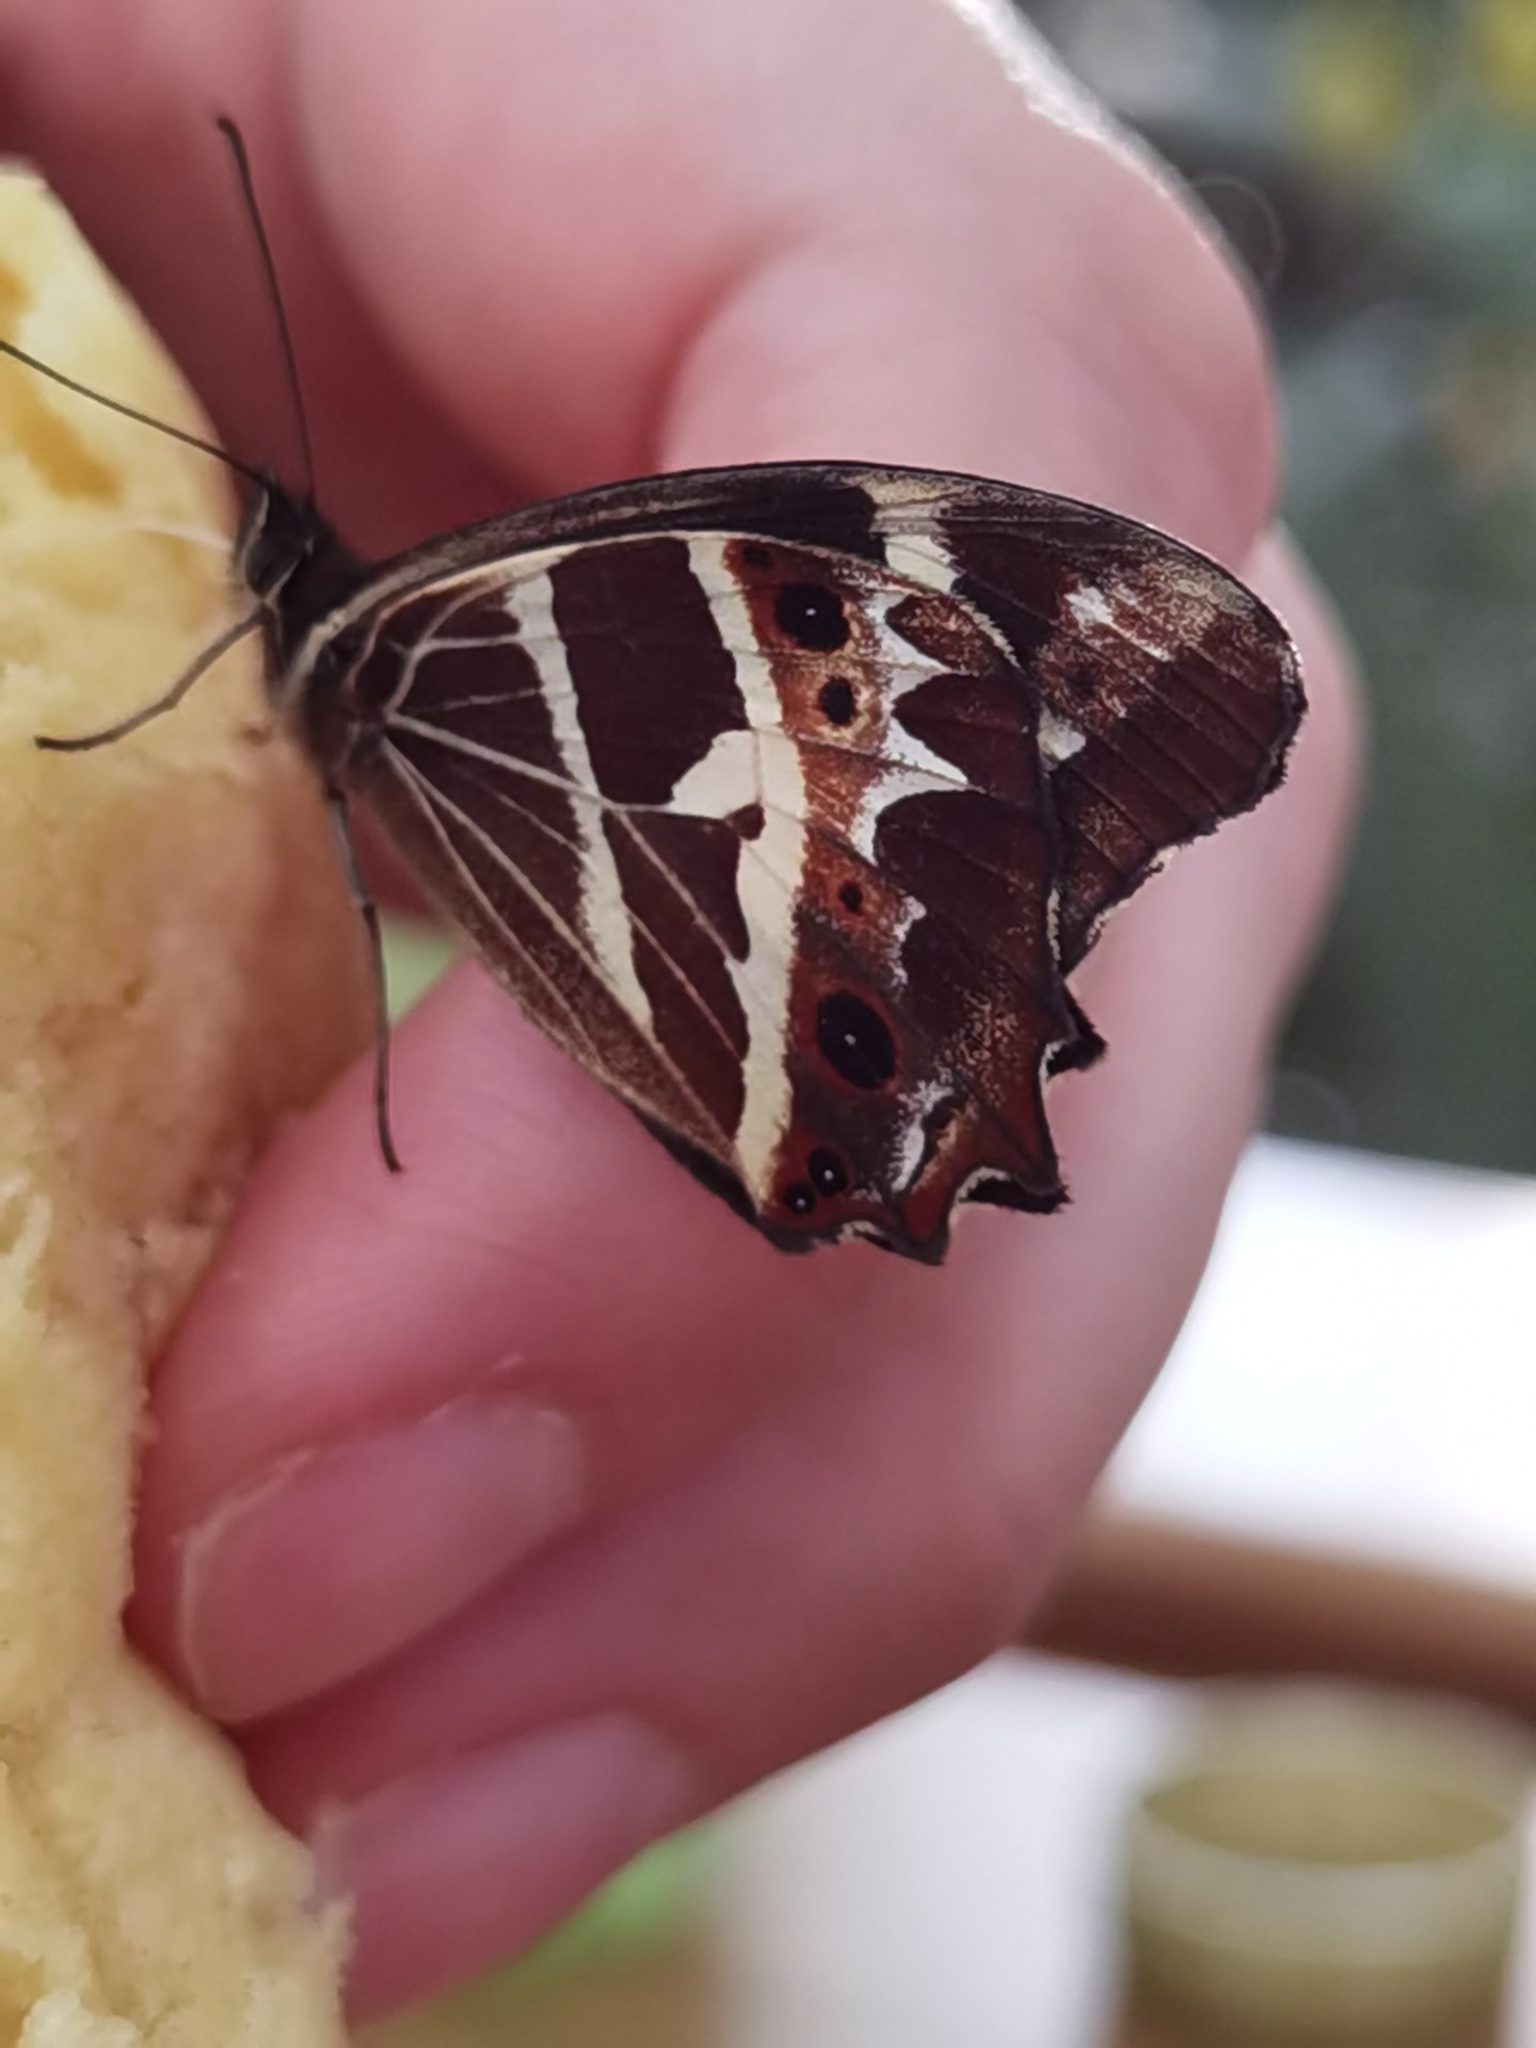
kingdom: Animalia
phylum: Arthropoda
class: Insecta
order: Lepidoptera
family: Nymphalidae
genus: Oxeoschistus
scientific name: Oxeoschistus tauropolis
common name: Starred oxeo
